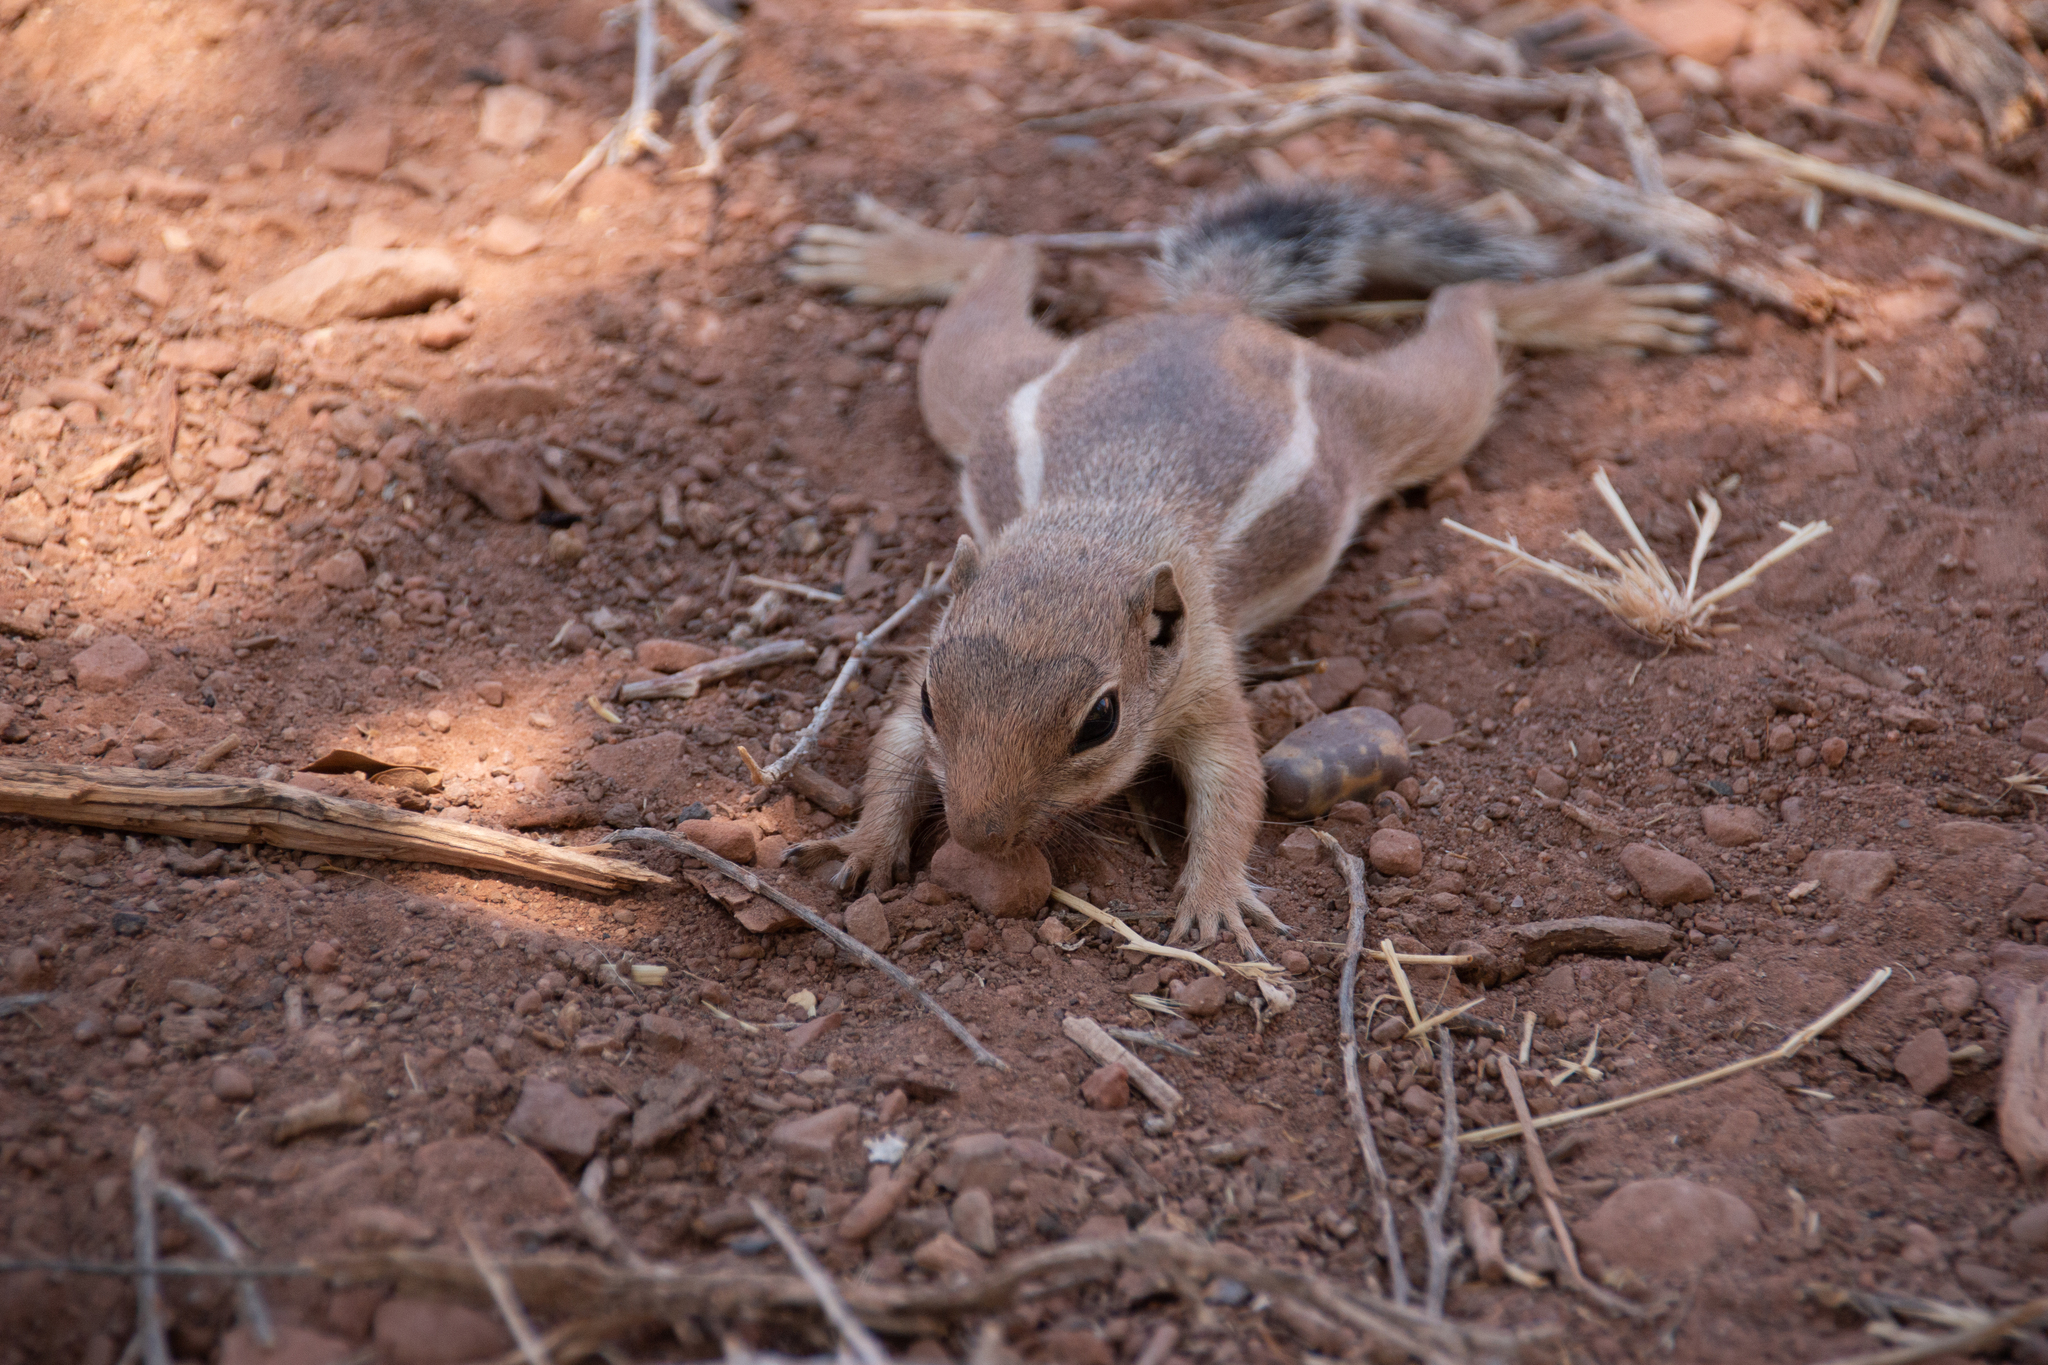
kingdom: Animalia
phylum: Chordata
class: Mammalia
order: Rodentia
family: Sciuridae
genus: Ammospermophilus
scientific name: Ammospermophilus leucurus
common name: White-tailed antelope squirrel
